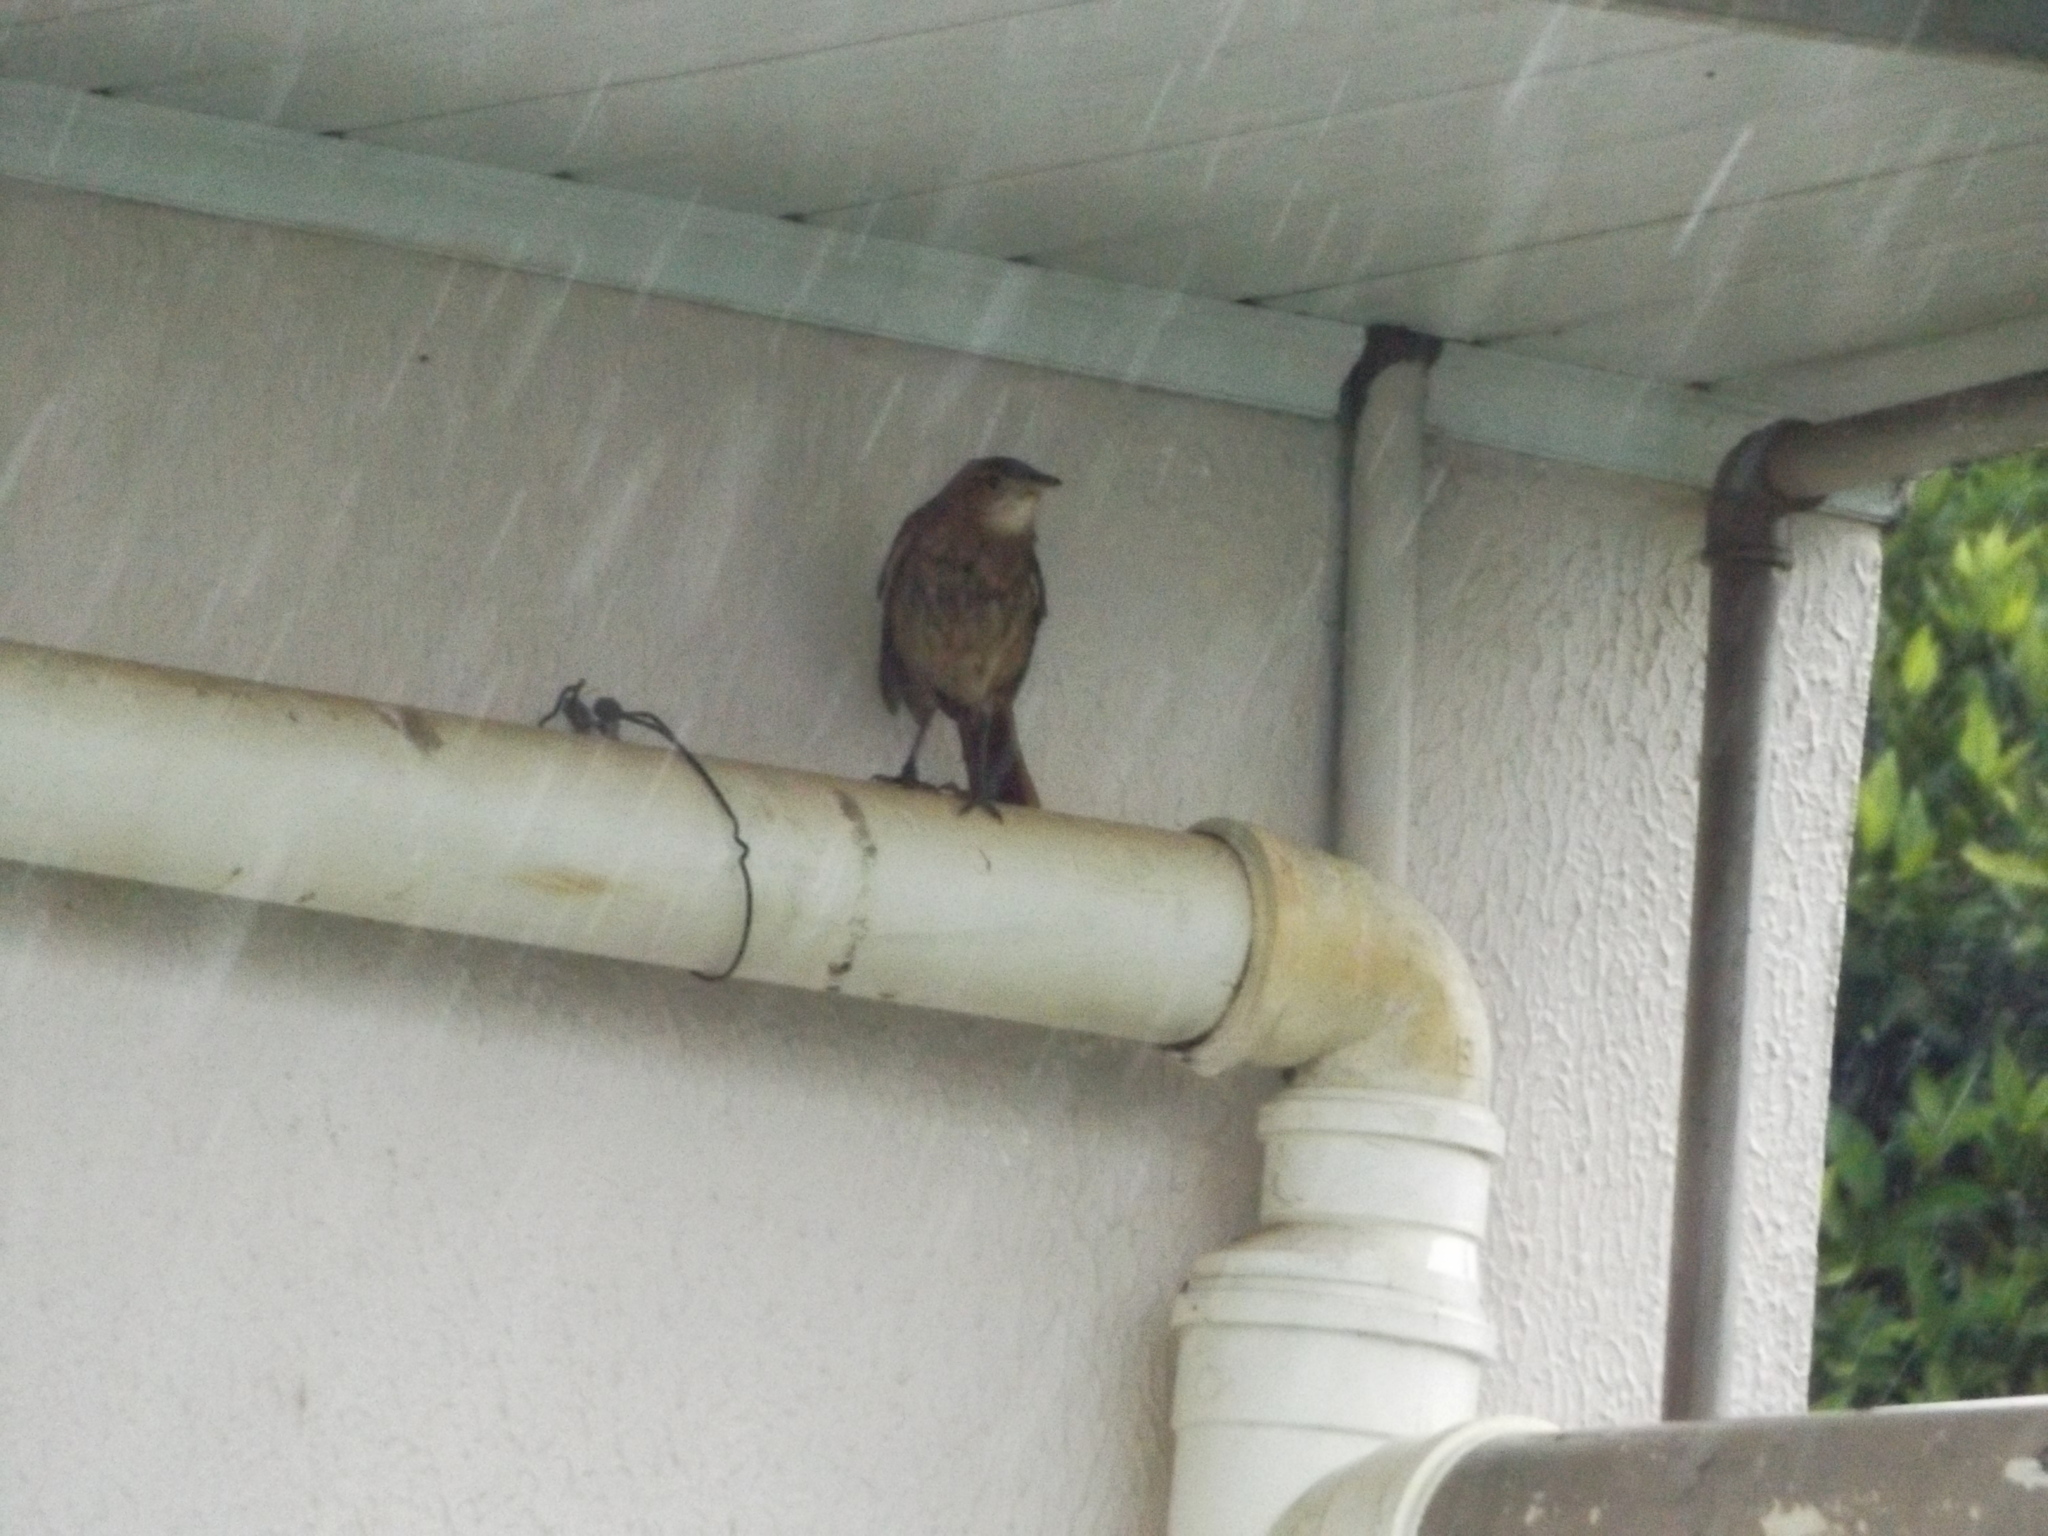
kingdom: Animalia
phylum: Chordata
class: Aves
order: Passeriformes
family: Furnariidae
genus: Furnarius
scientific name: Furnarius rufus
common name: Rufous hornero
